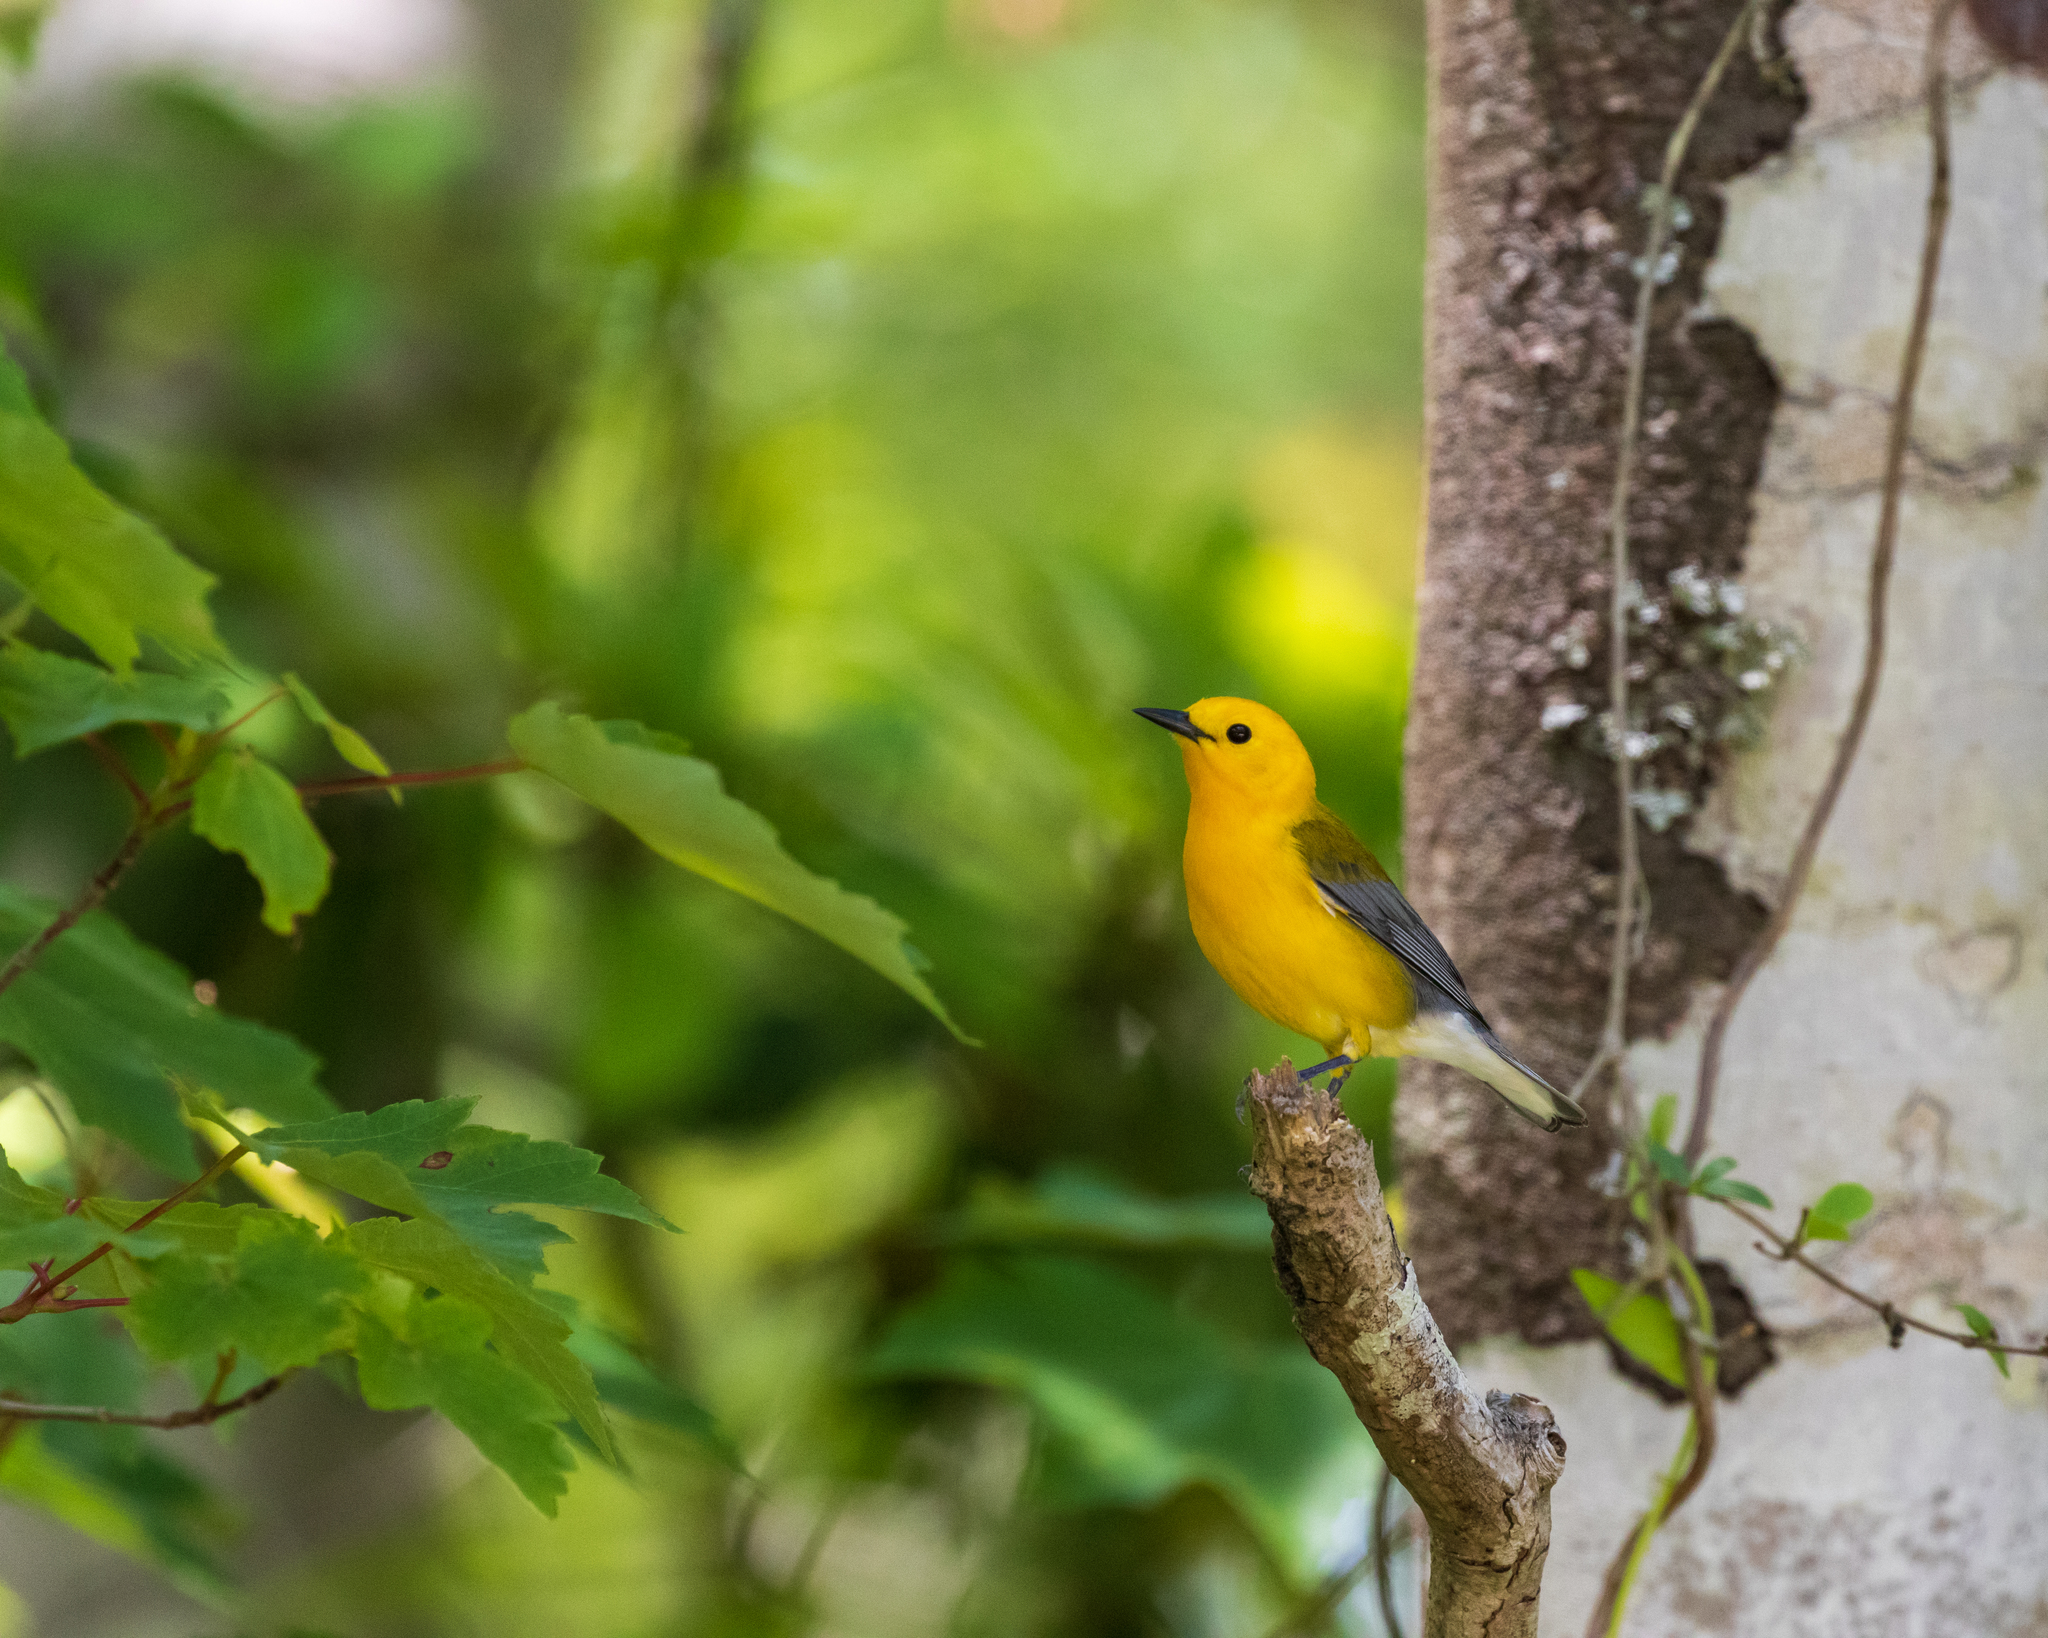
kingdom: Animalia
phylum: Chordata
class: Aves
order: Passeriformes
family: Parulidae
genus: Protonotaria
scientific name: Protonotaria citrea
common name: Prothonotary warbler
